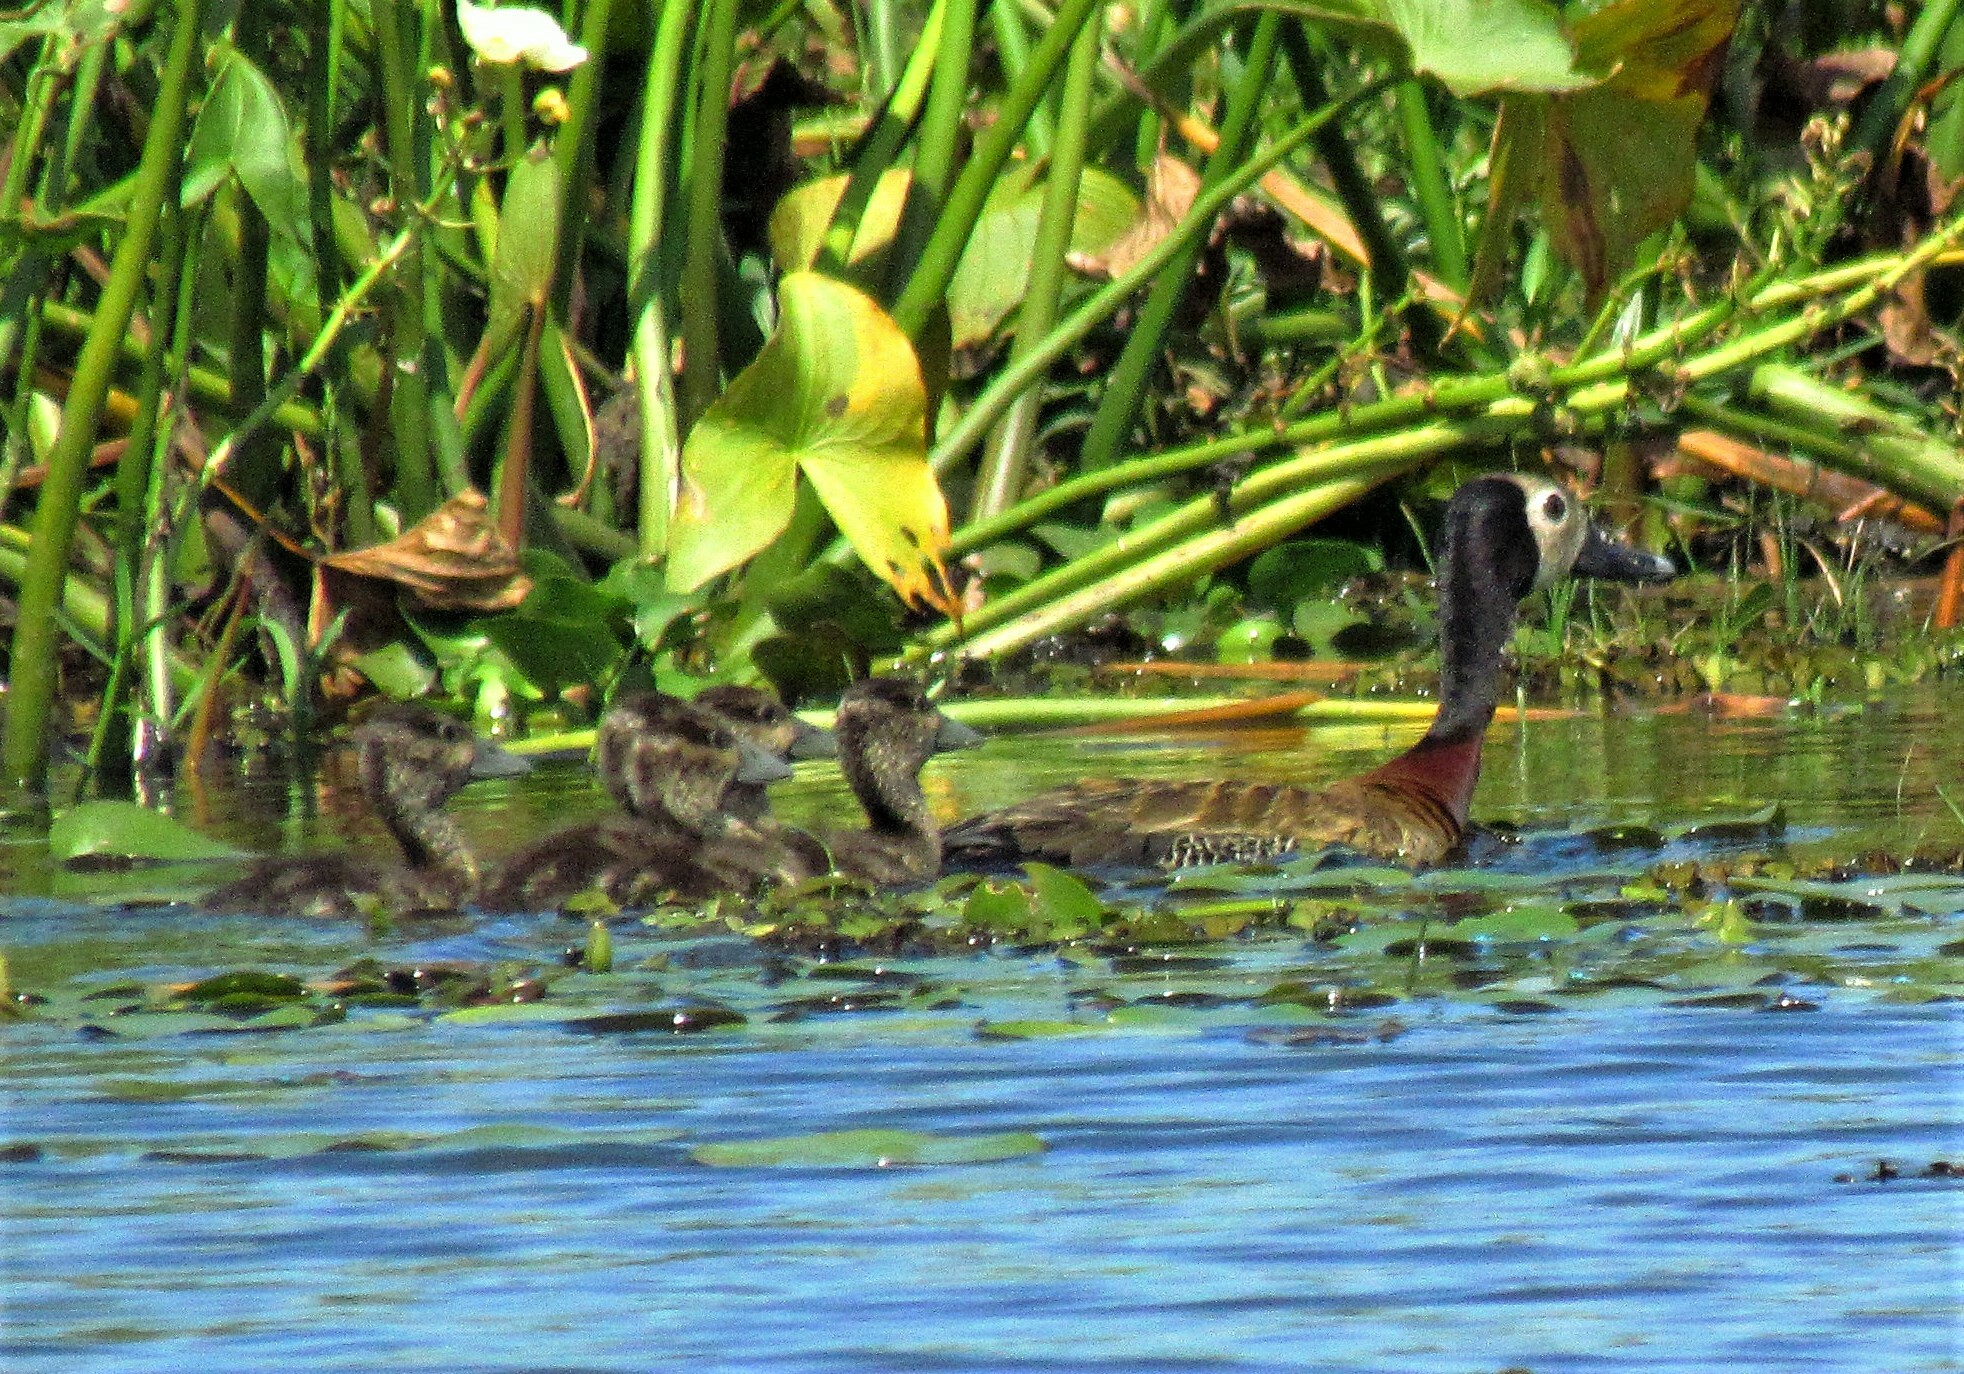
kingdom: Animalia
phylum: Chordata
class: Aves
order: Anseriformes
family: Anatidae
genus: Dendrocygna
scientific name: Dendrocygna viduata
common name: White-faced whistling duck
